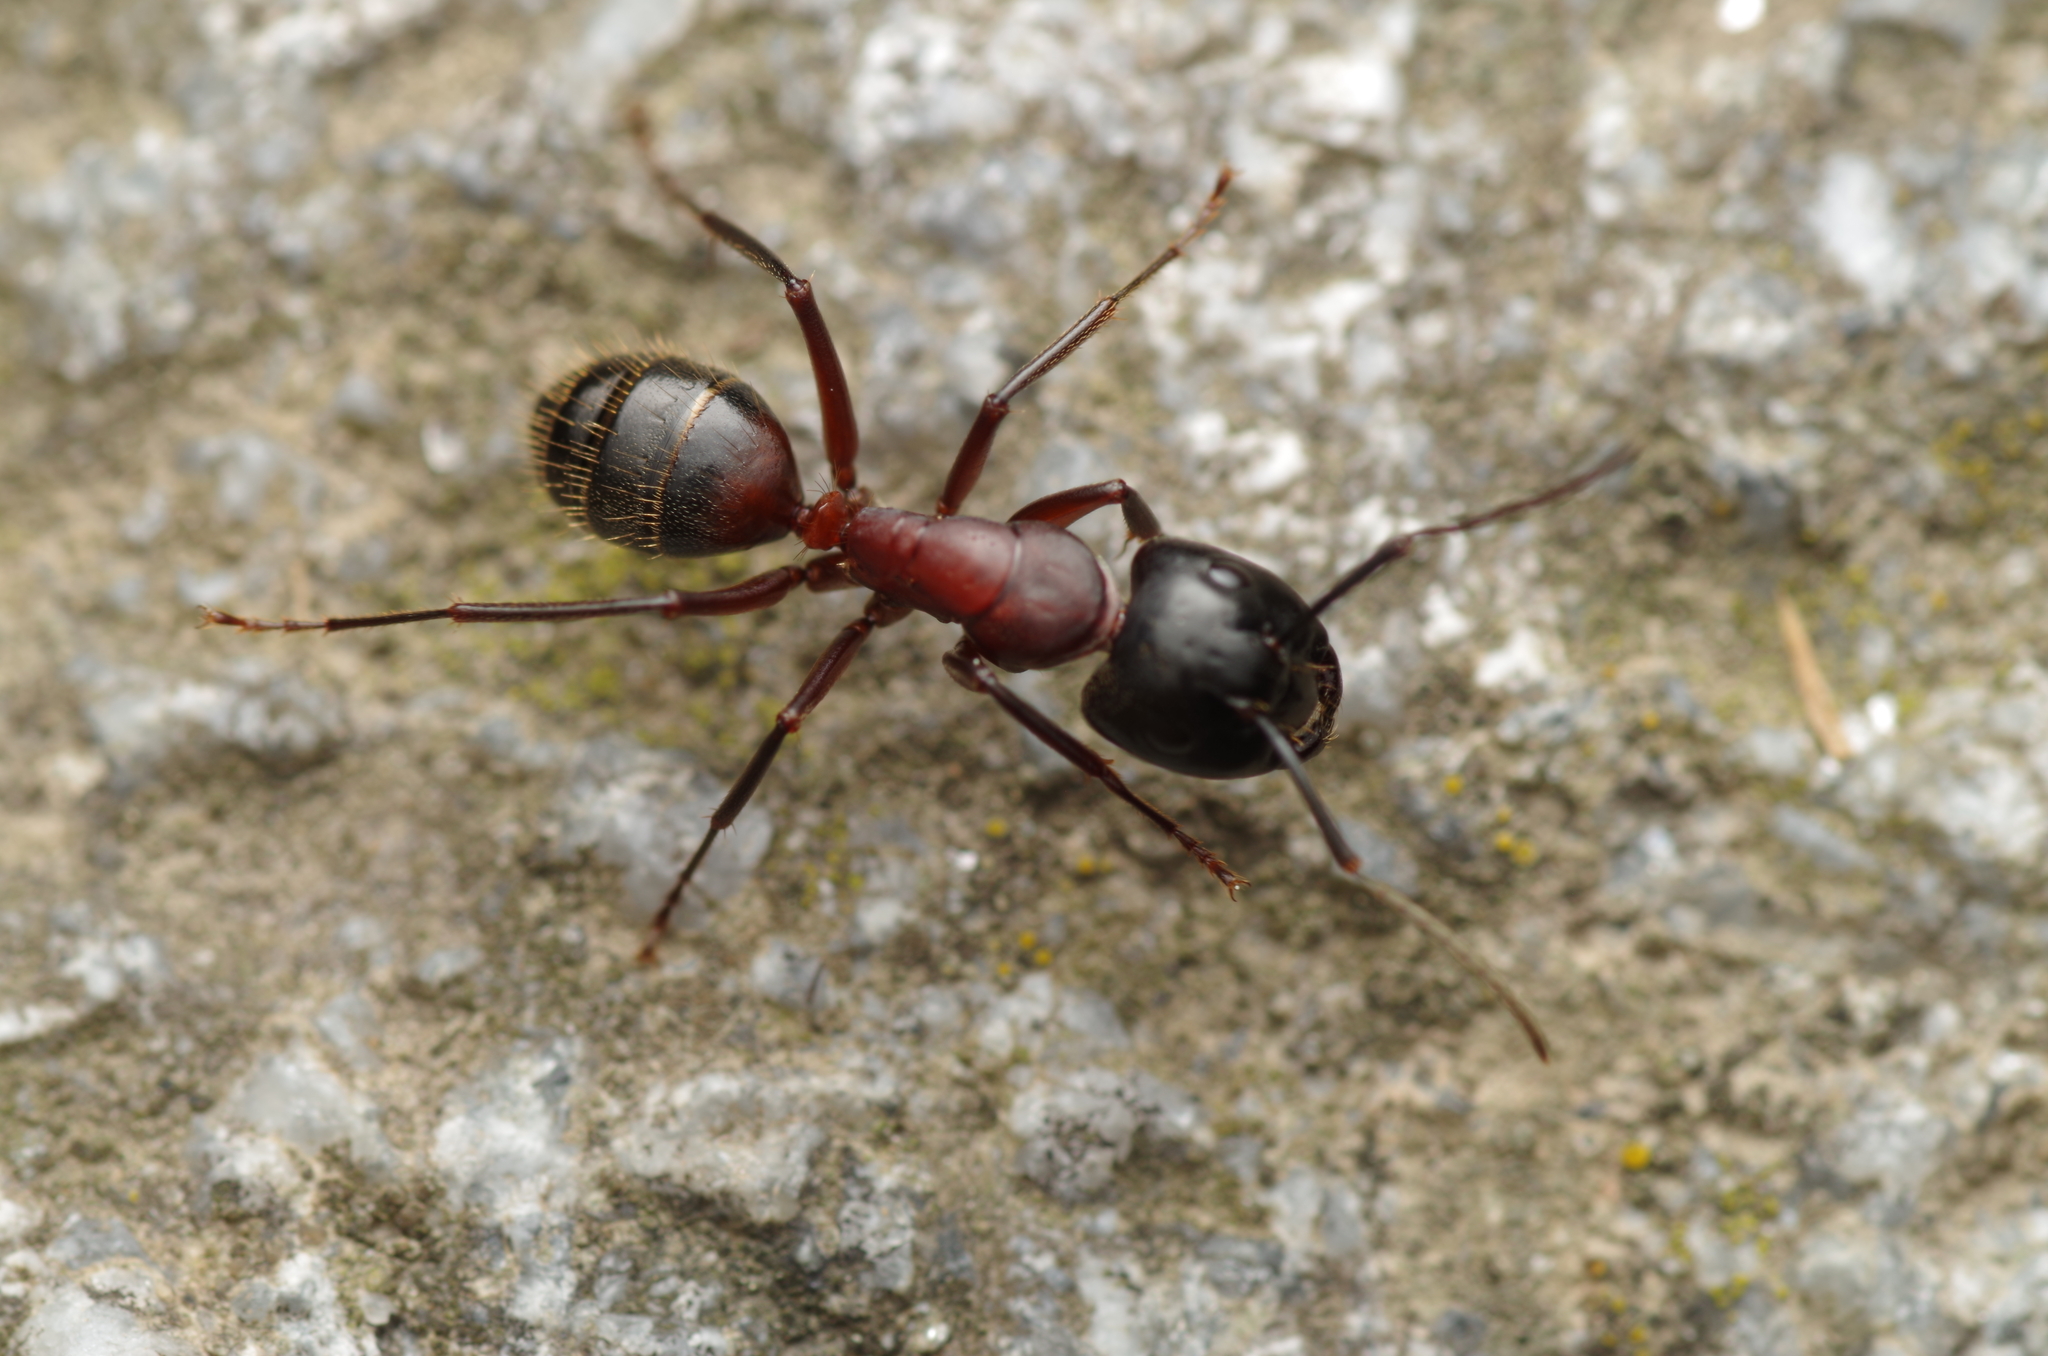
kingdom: Animalia
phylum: Arthropoda
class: Insecta
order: Hymenoptera
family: Formicidae
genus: Camponotus
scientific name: Camponotus ligniperdus
